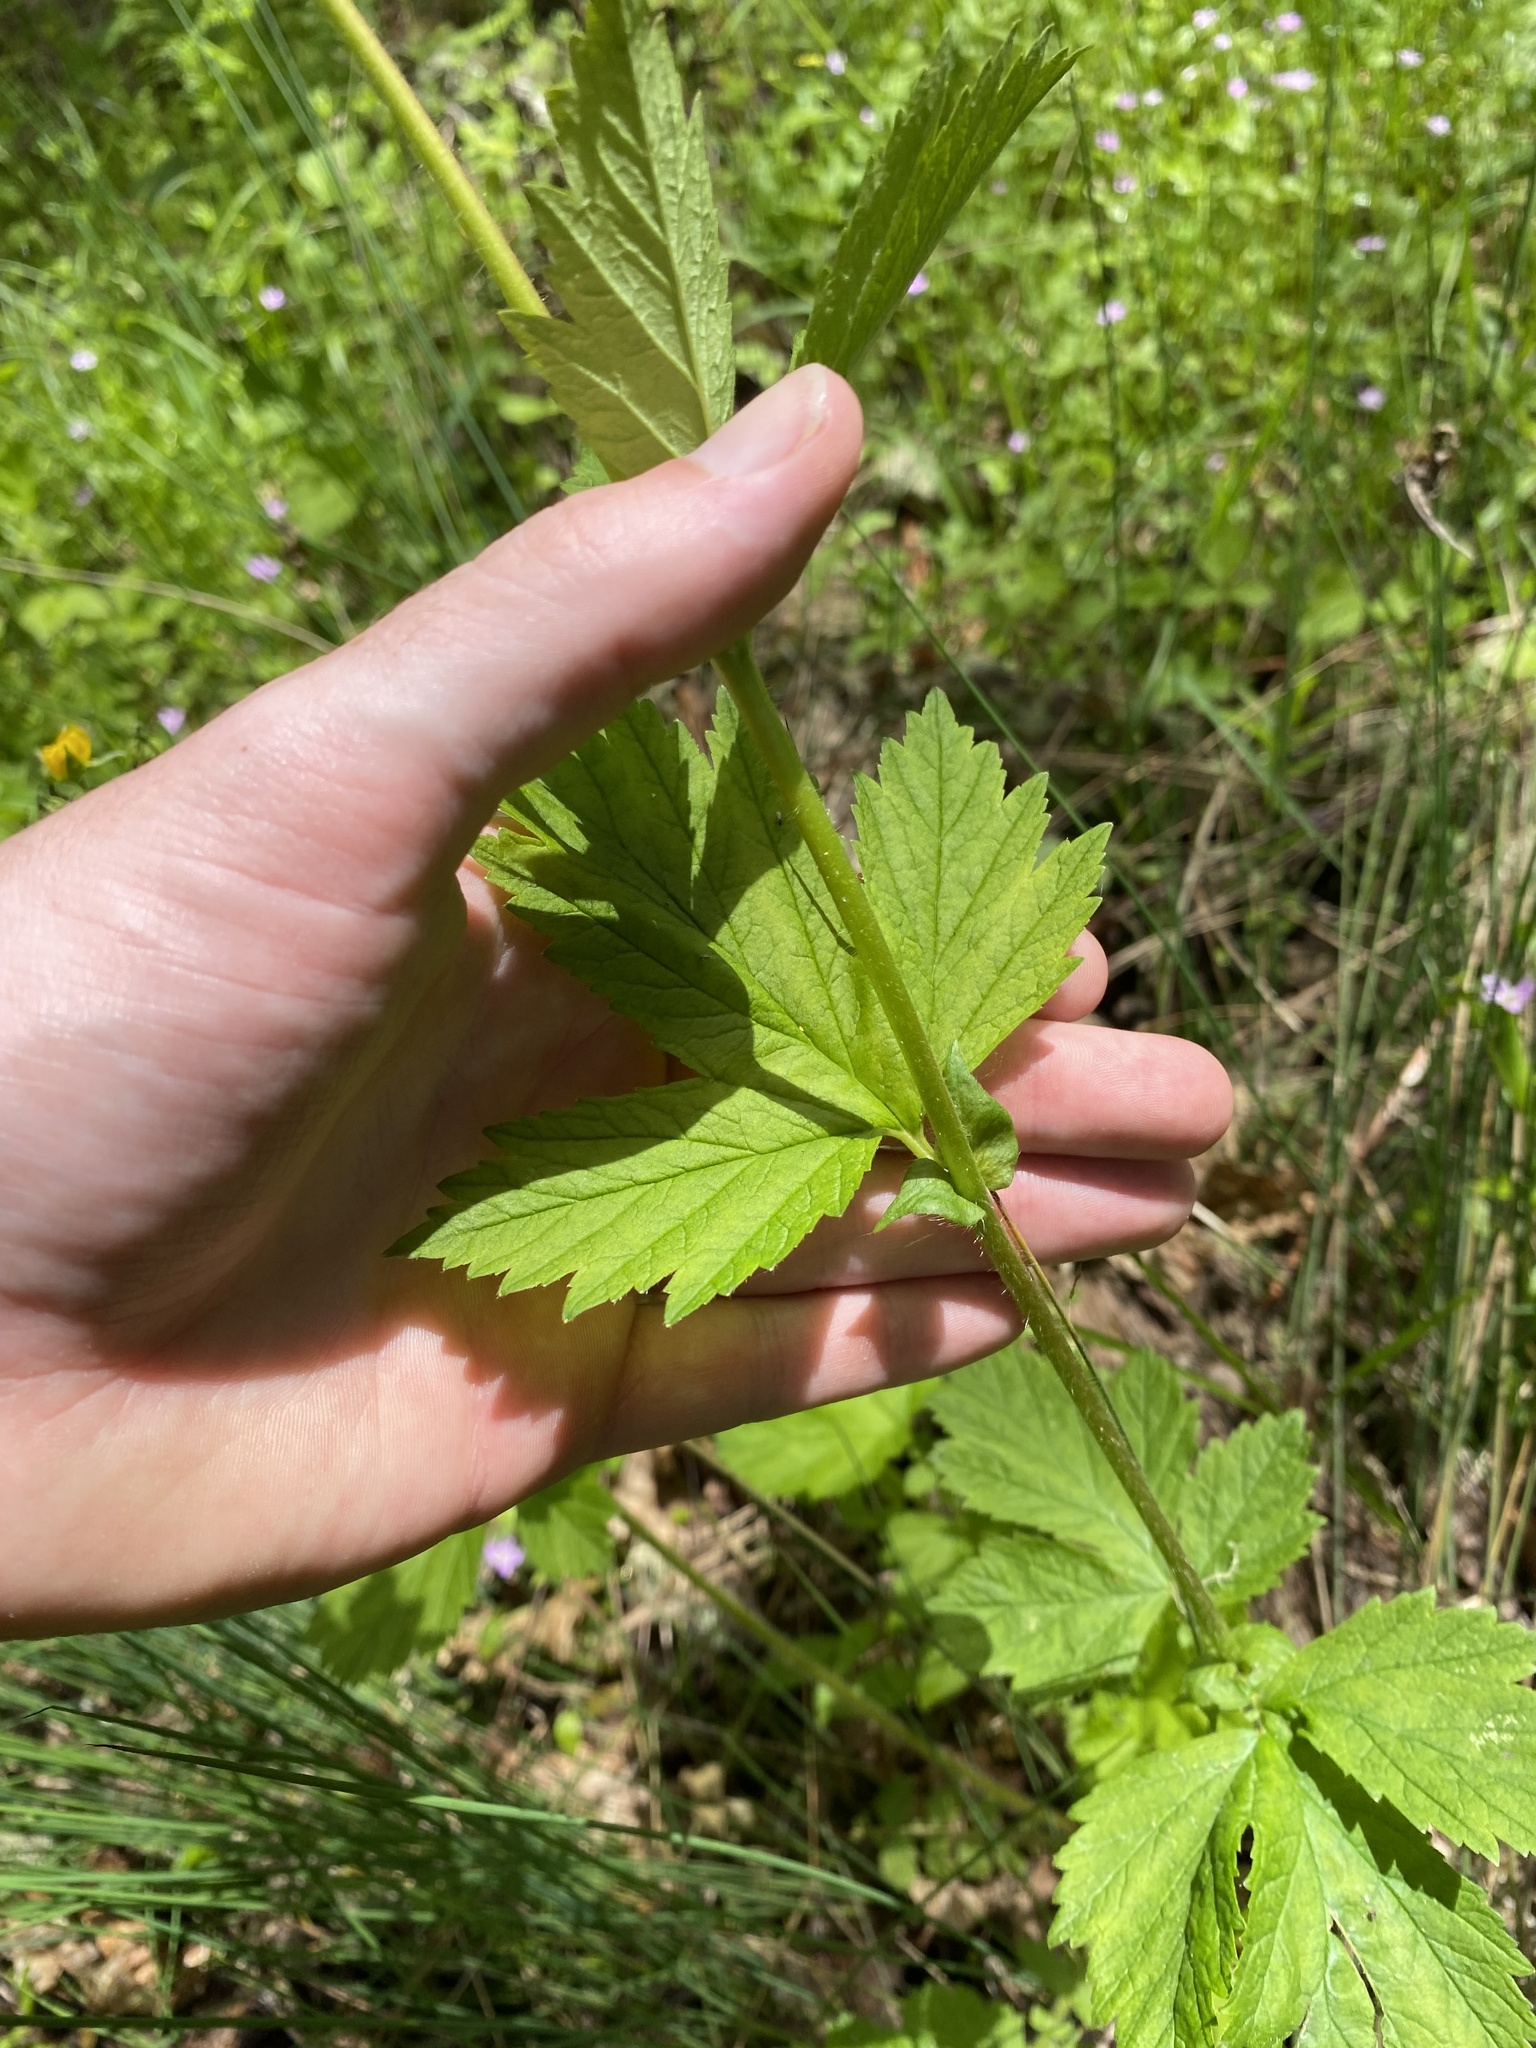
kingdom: Plantae
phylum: Tracheophyta
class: Magnoliopsida
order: Rosales
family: Rosaceae
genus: Geum
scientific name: Geum macrophyllum
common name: Large-leaved avens
